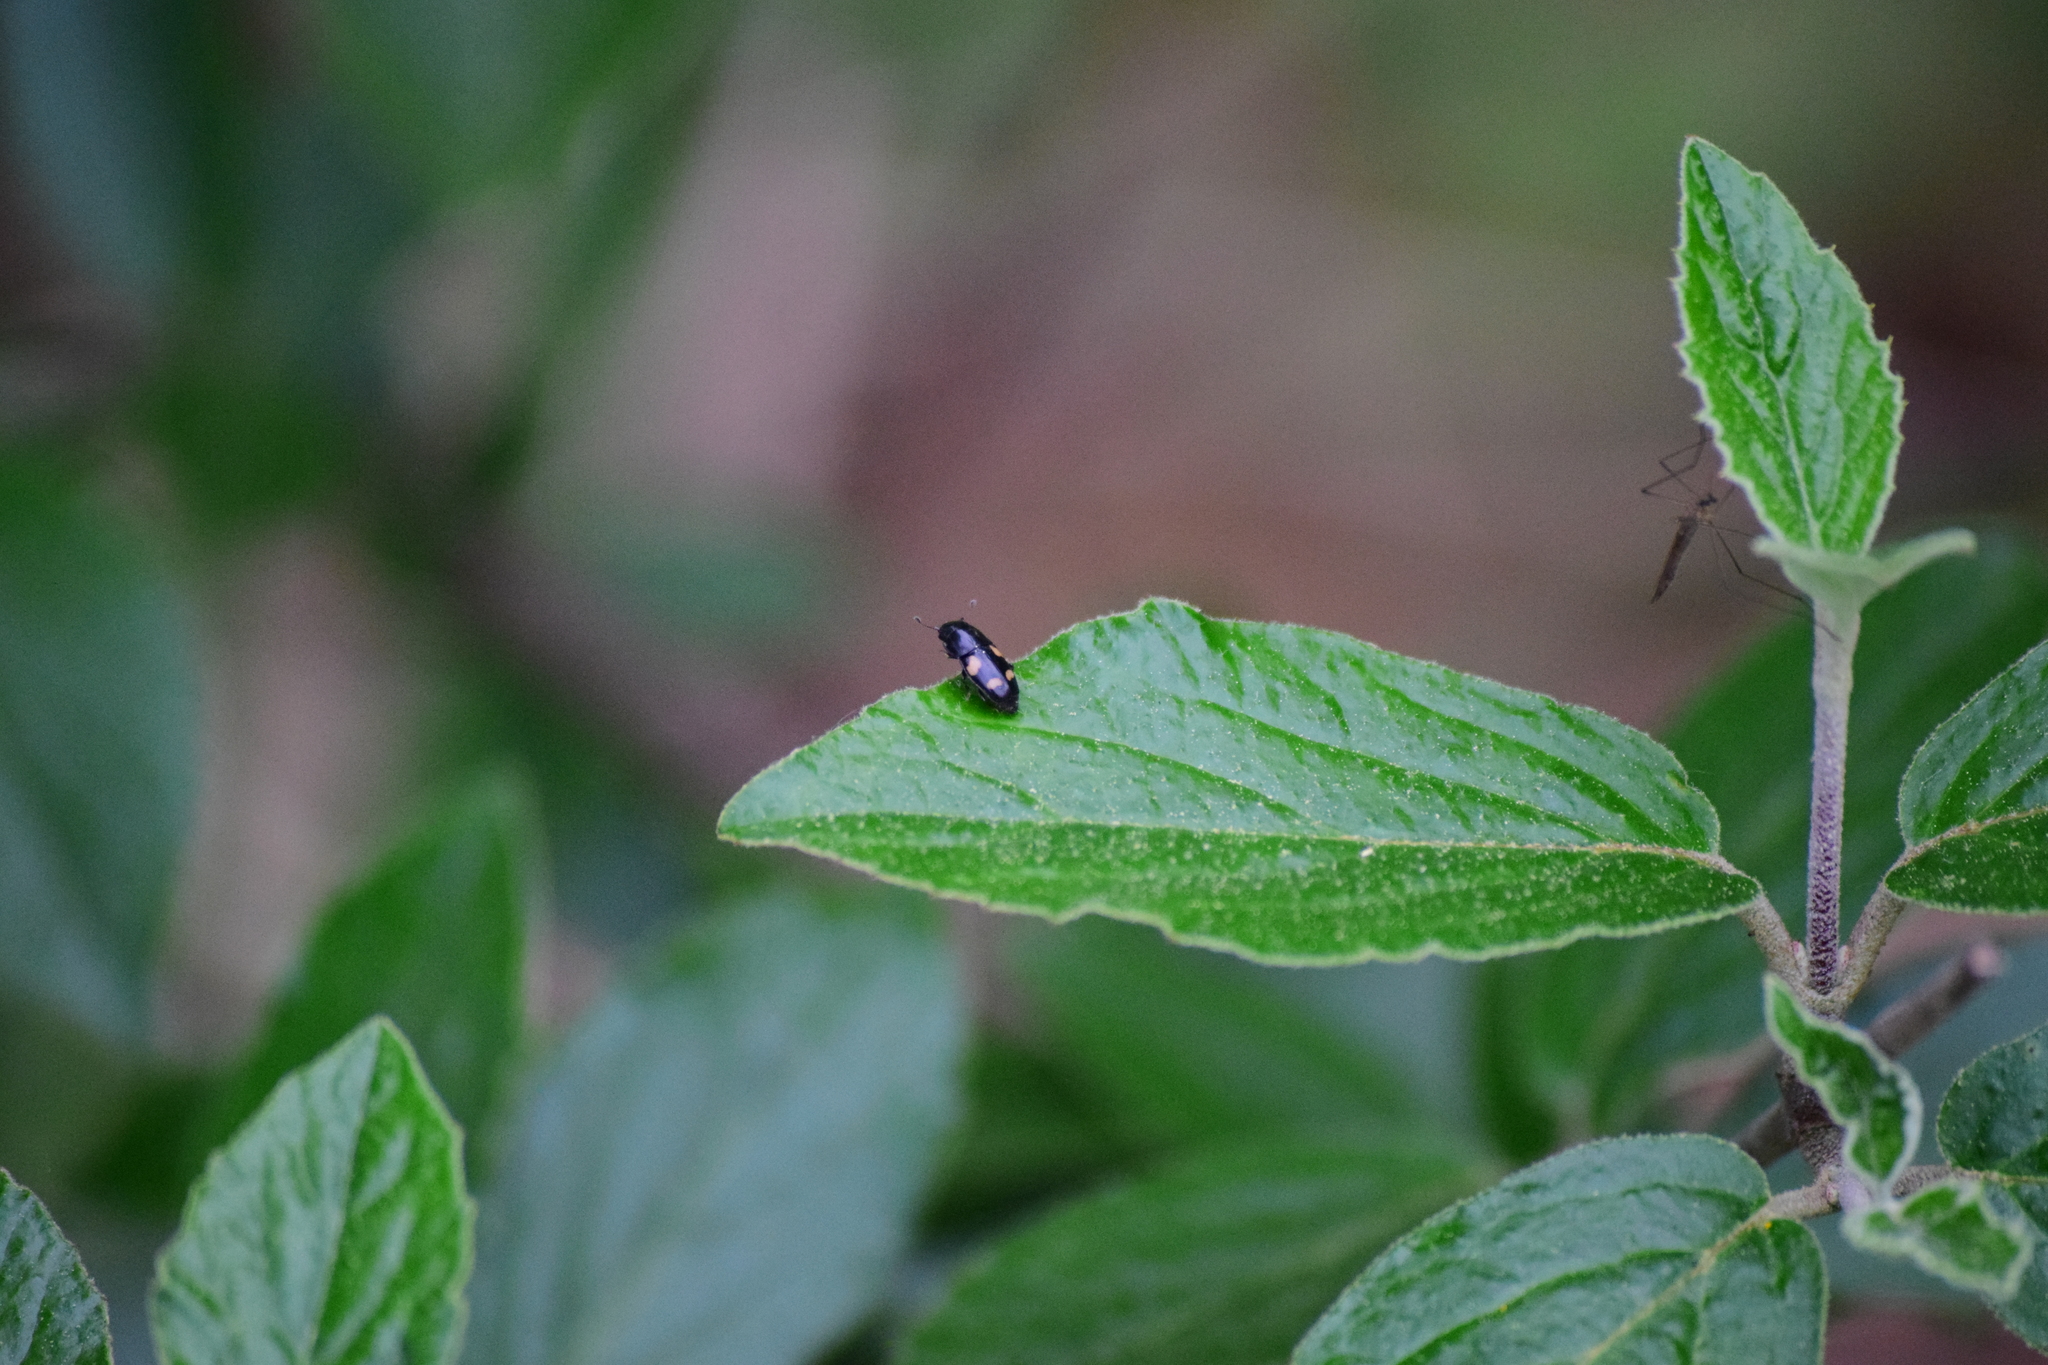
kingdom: Animalia
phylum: Arthropoda
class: Insecta
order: Coleoptera
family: Nitidulidae
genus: Glischrochilus
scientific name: Glischrochilus quadrisignatus
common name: Picnic beetle
